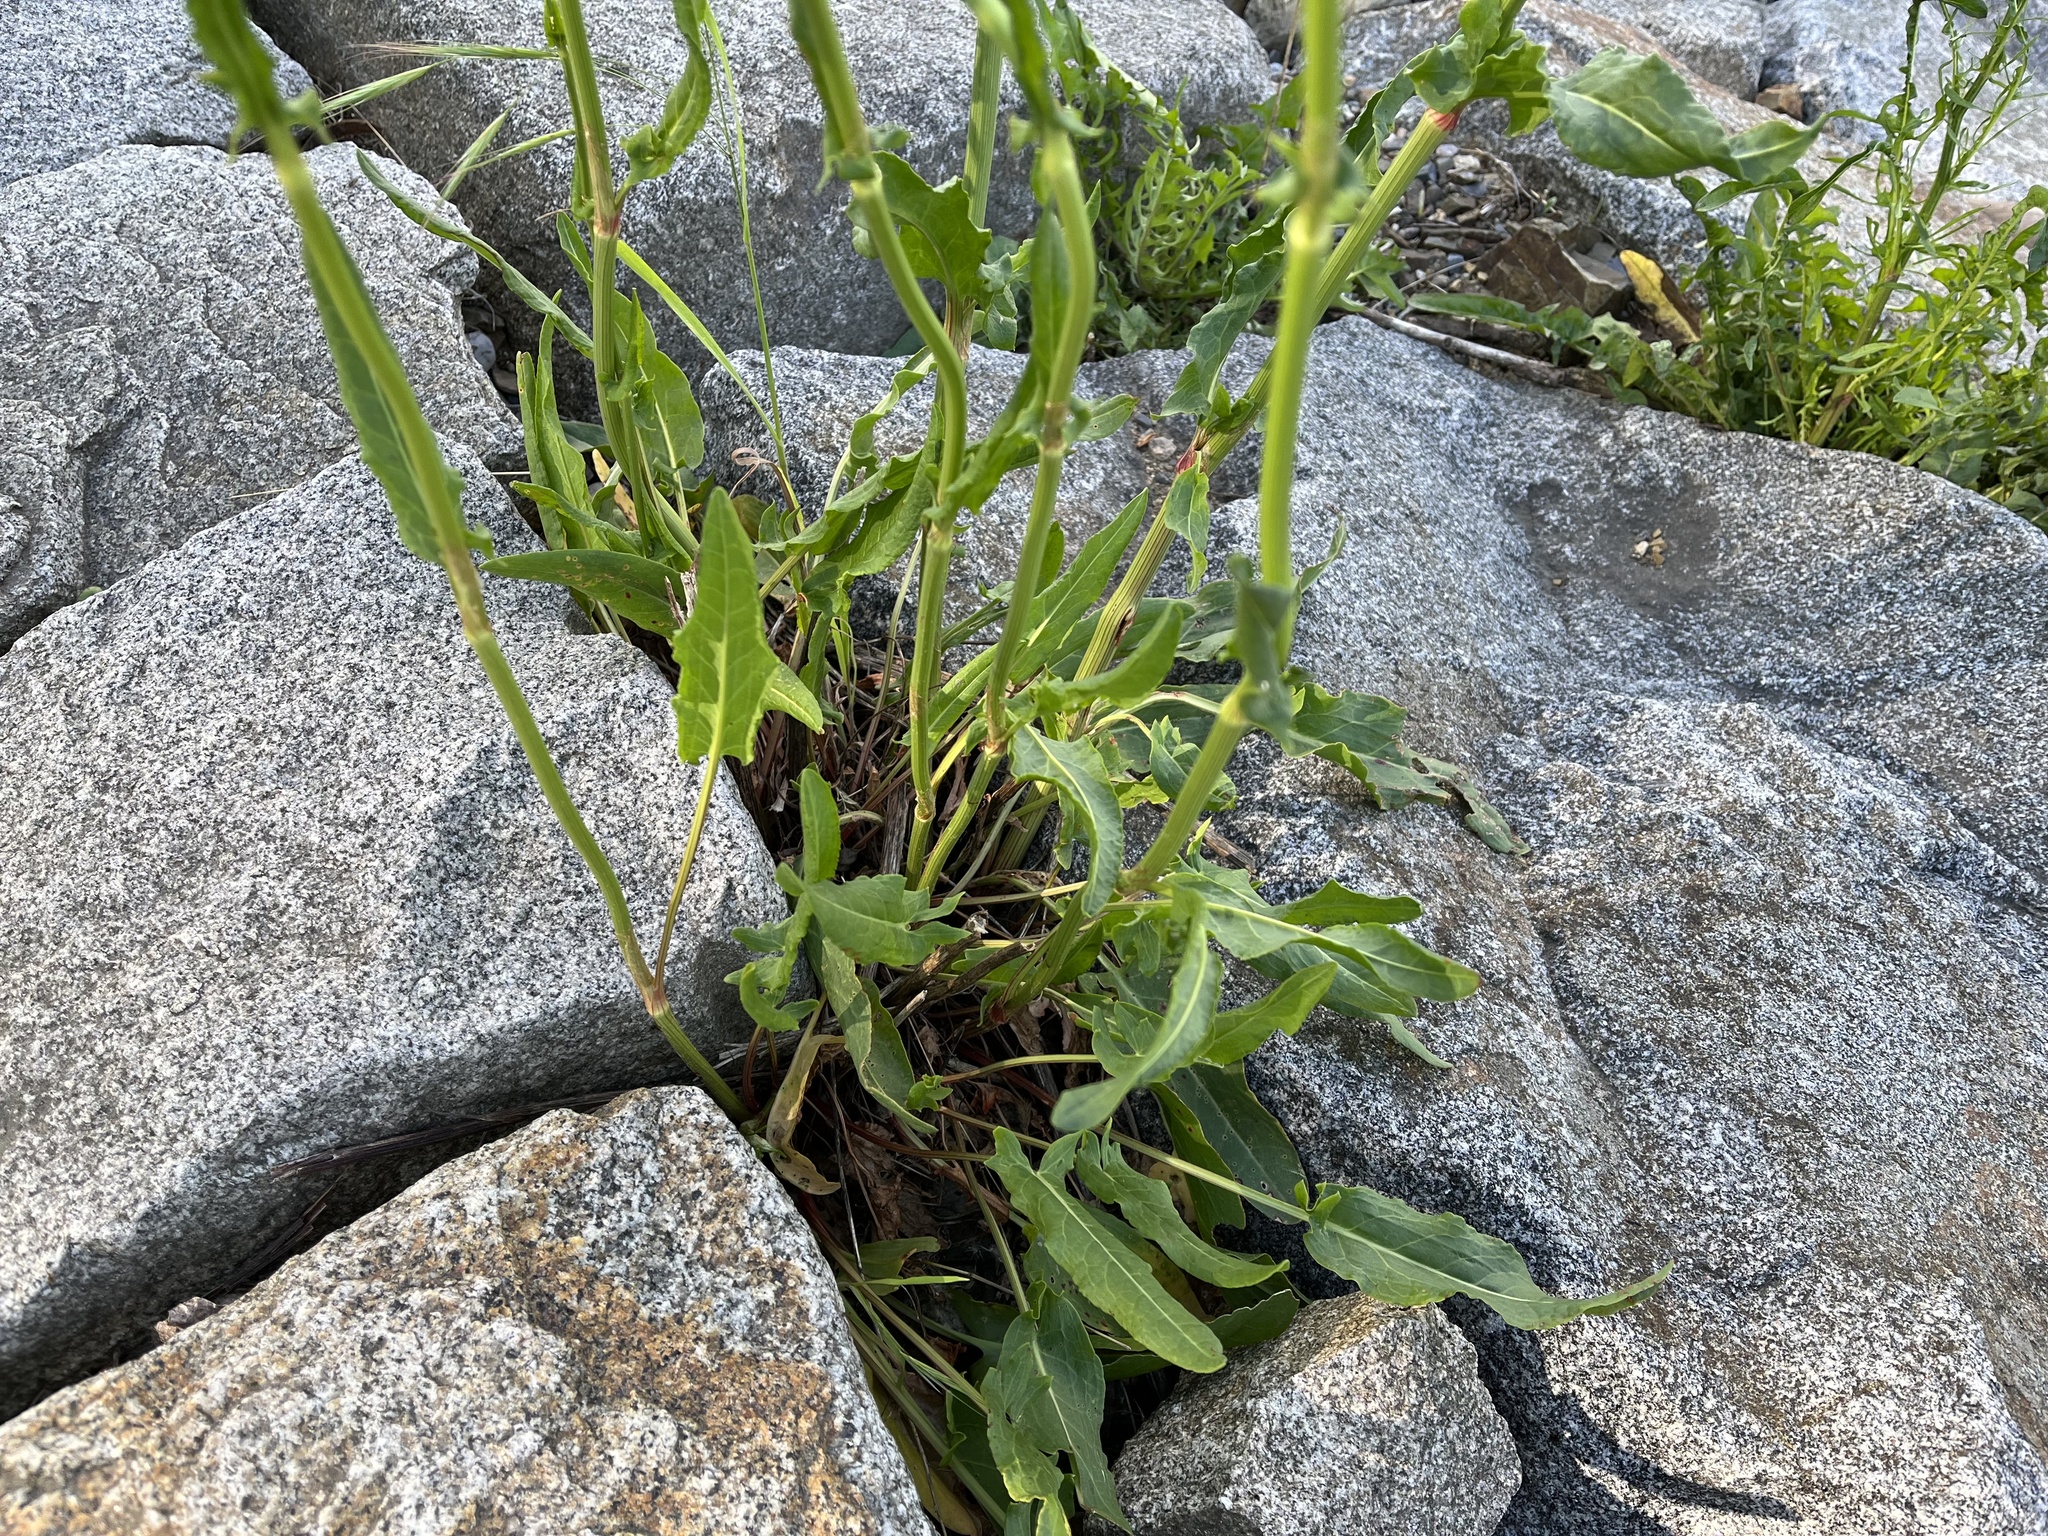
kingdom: Plantae
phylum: Tracheophyta
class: Magnoliopsida
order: Caryophyllales
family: Polygonaceae
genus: Rumex
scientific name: Rumex thyrsiflorus
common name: Garden sorrel
